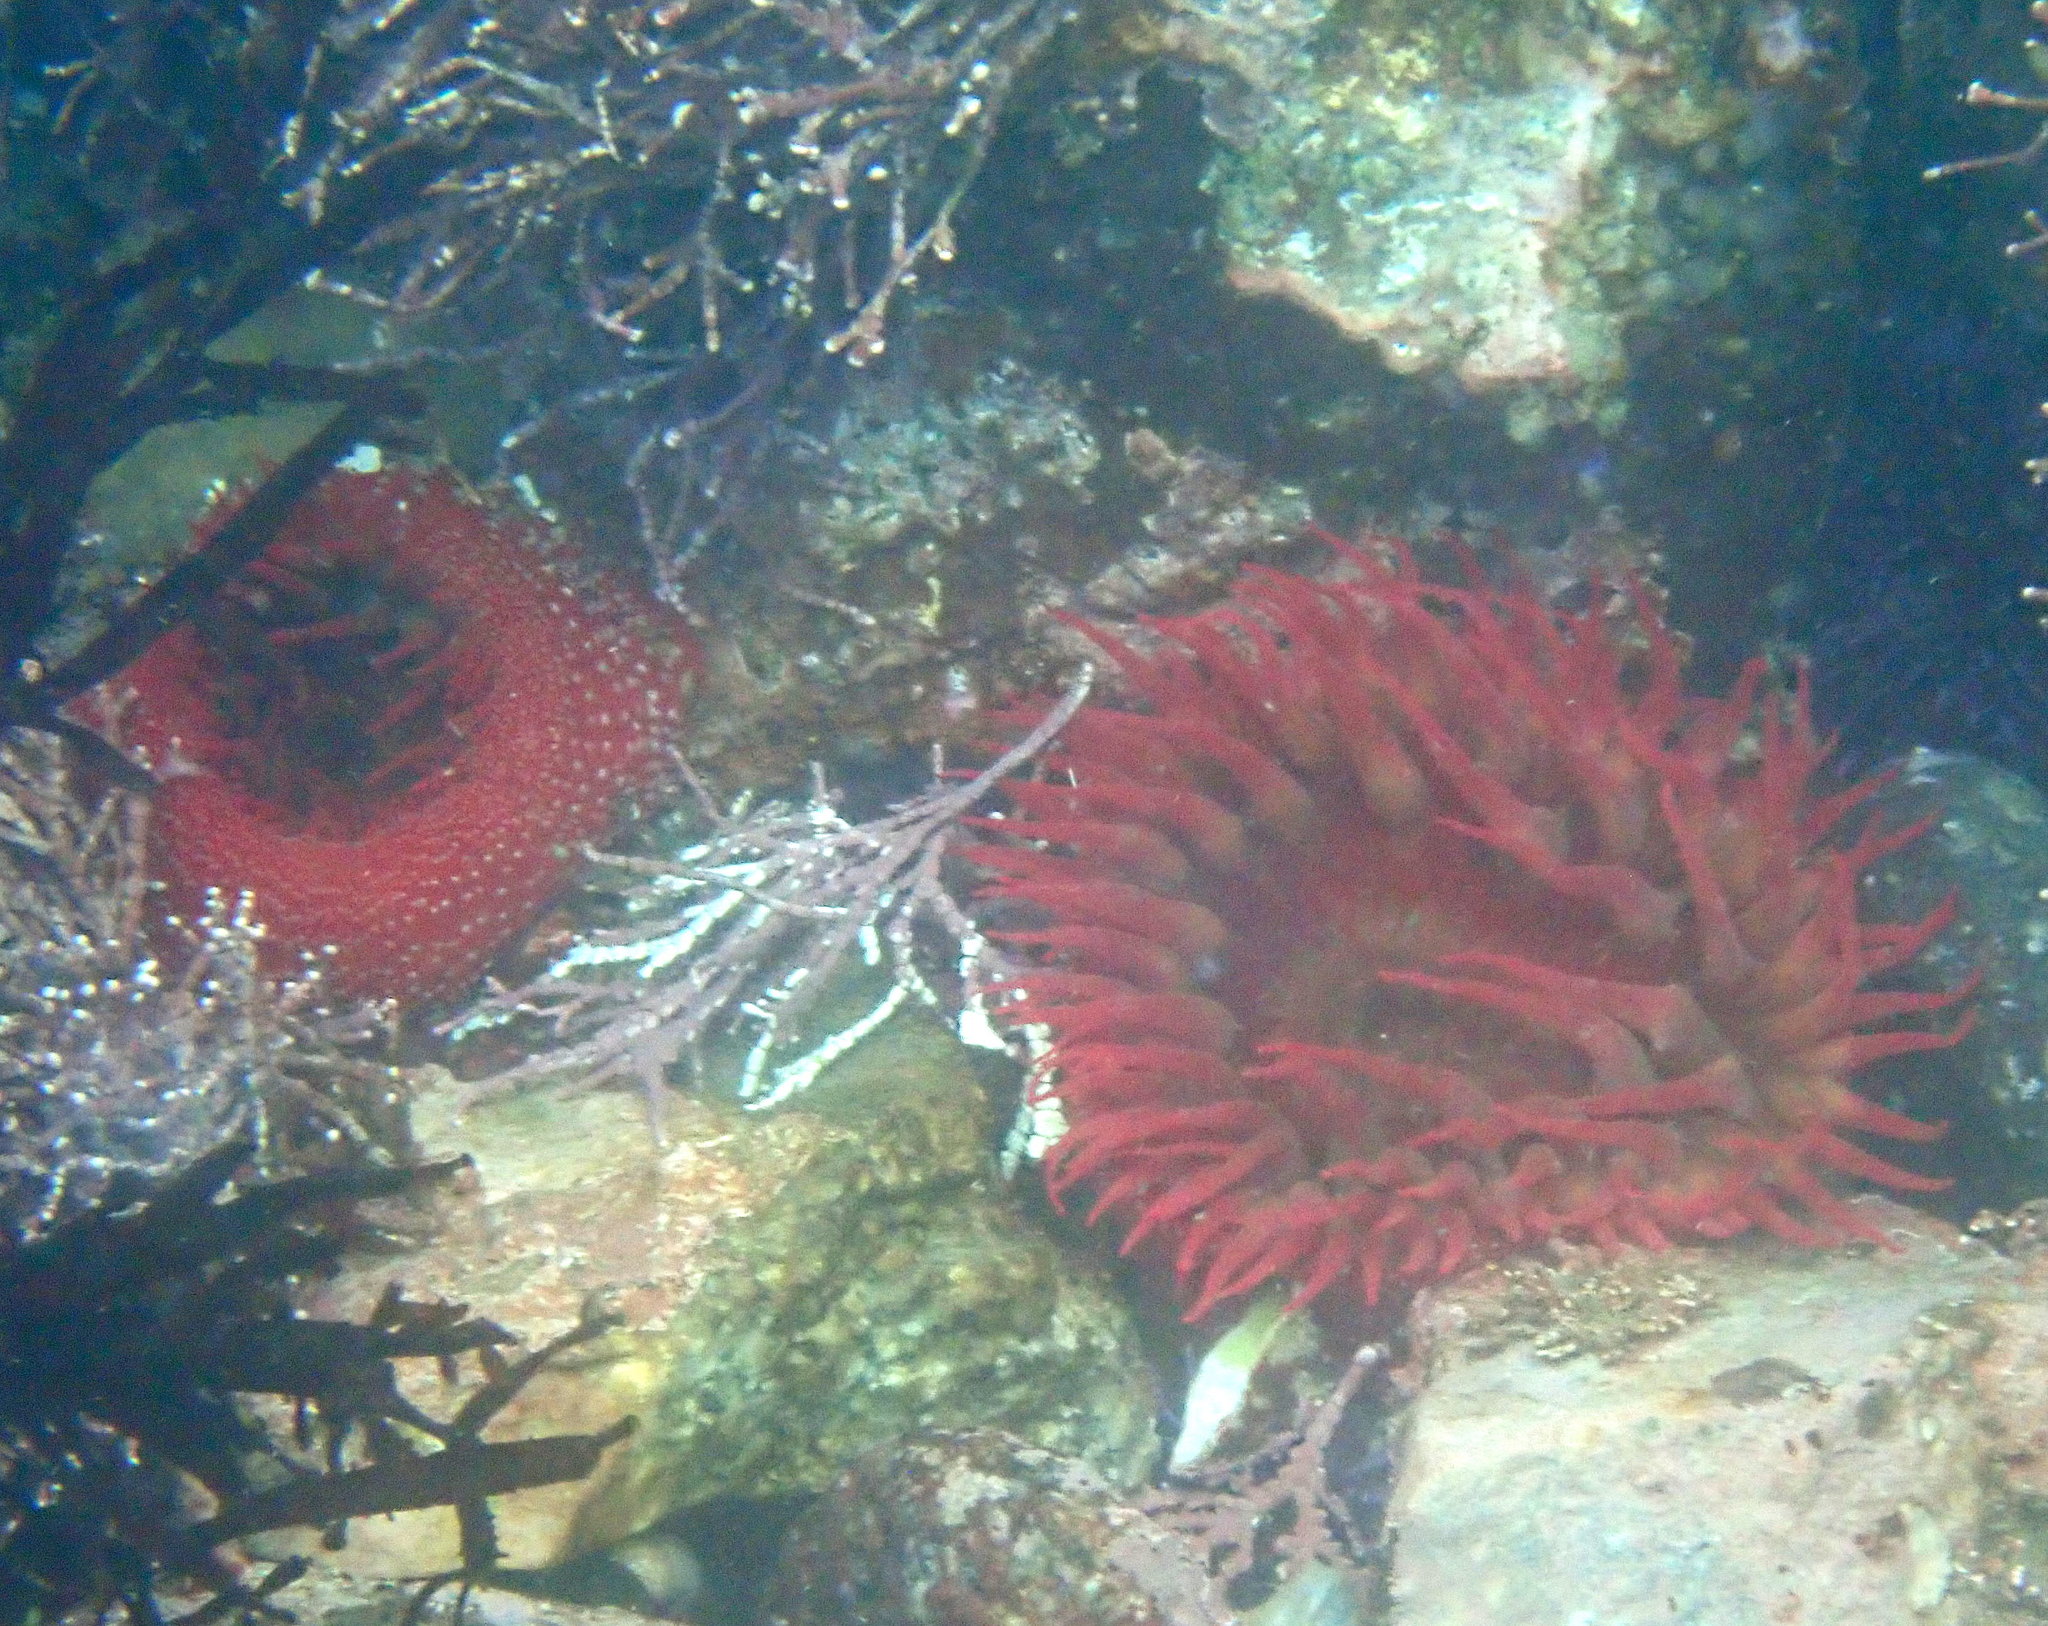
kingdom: Animalia
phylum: Cnidaria
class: Anthozoa
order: Actiniaria
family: Actiniidae
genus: Cribrinopsis
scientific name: Cribrinopsis albopunctata
